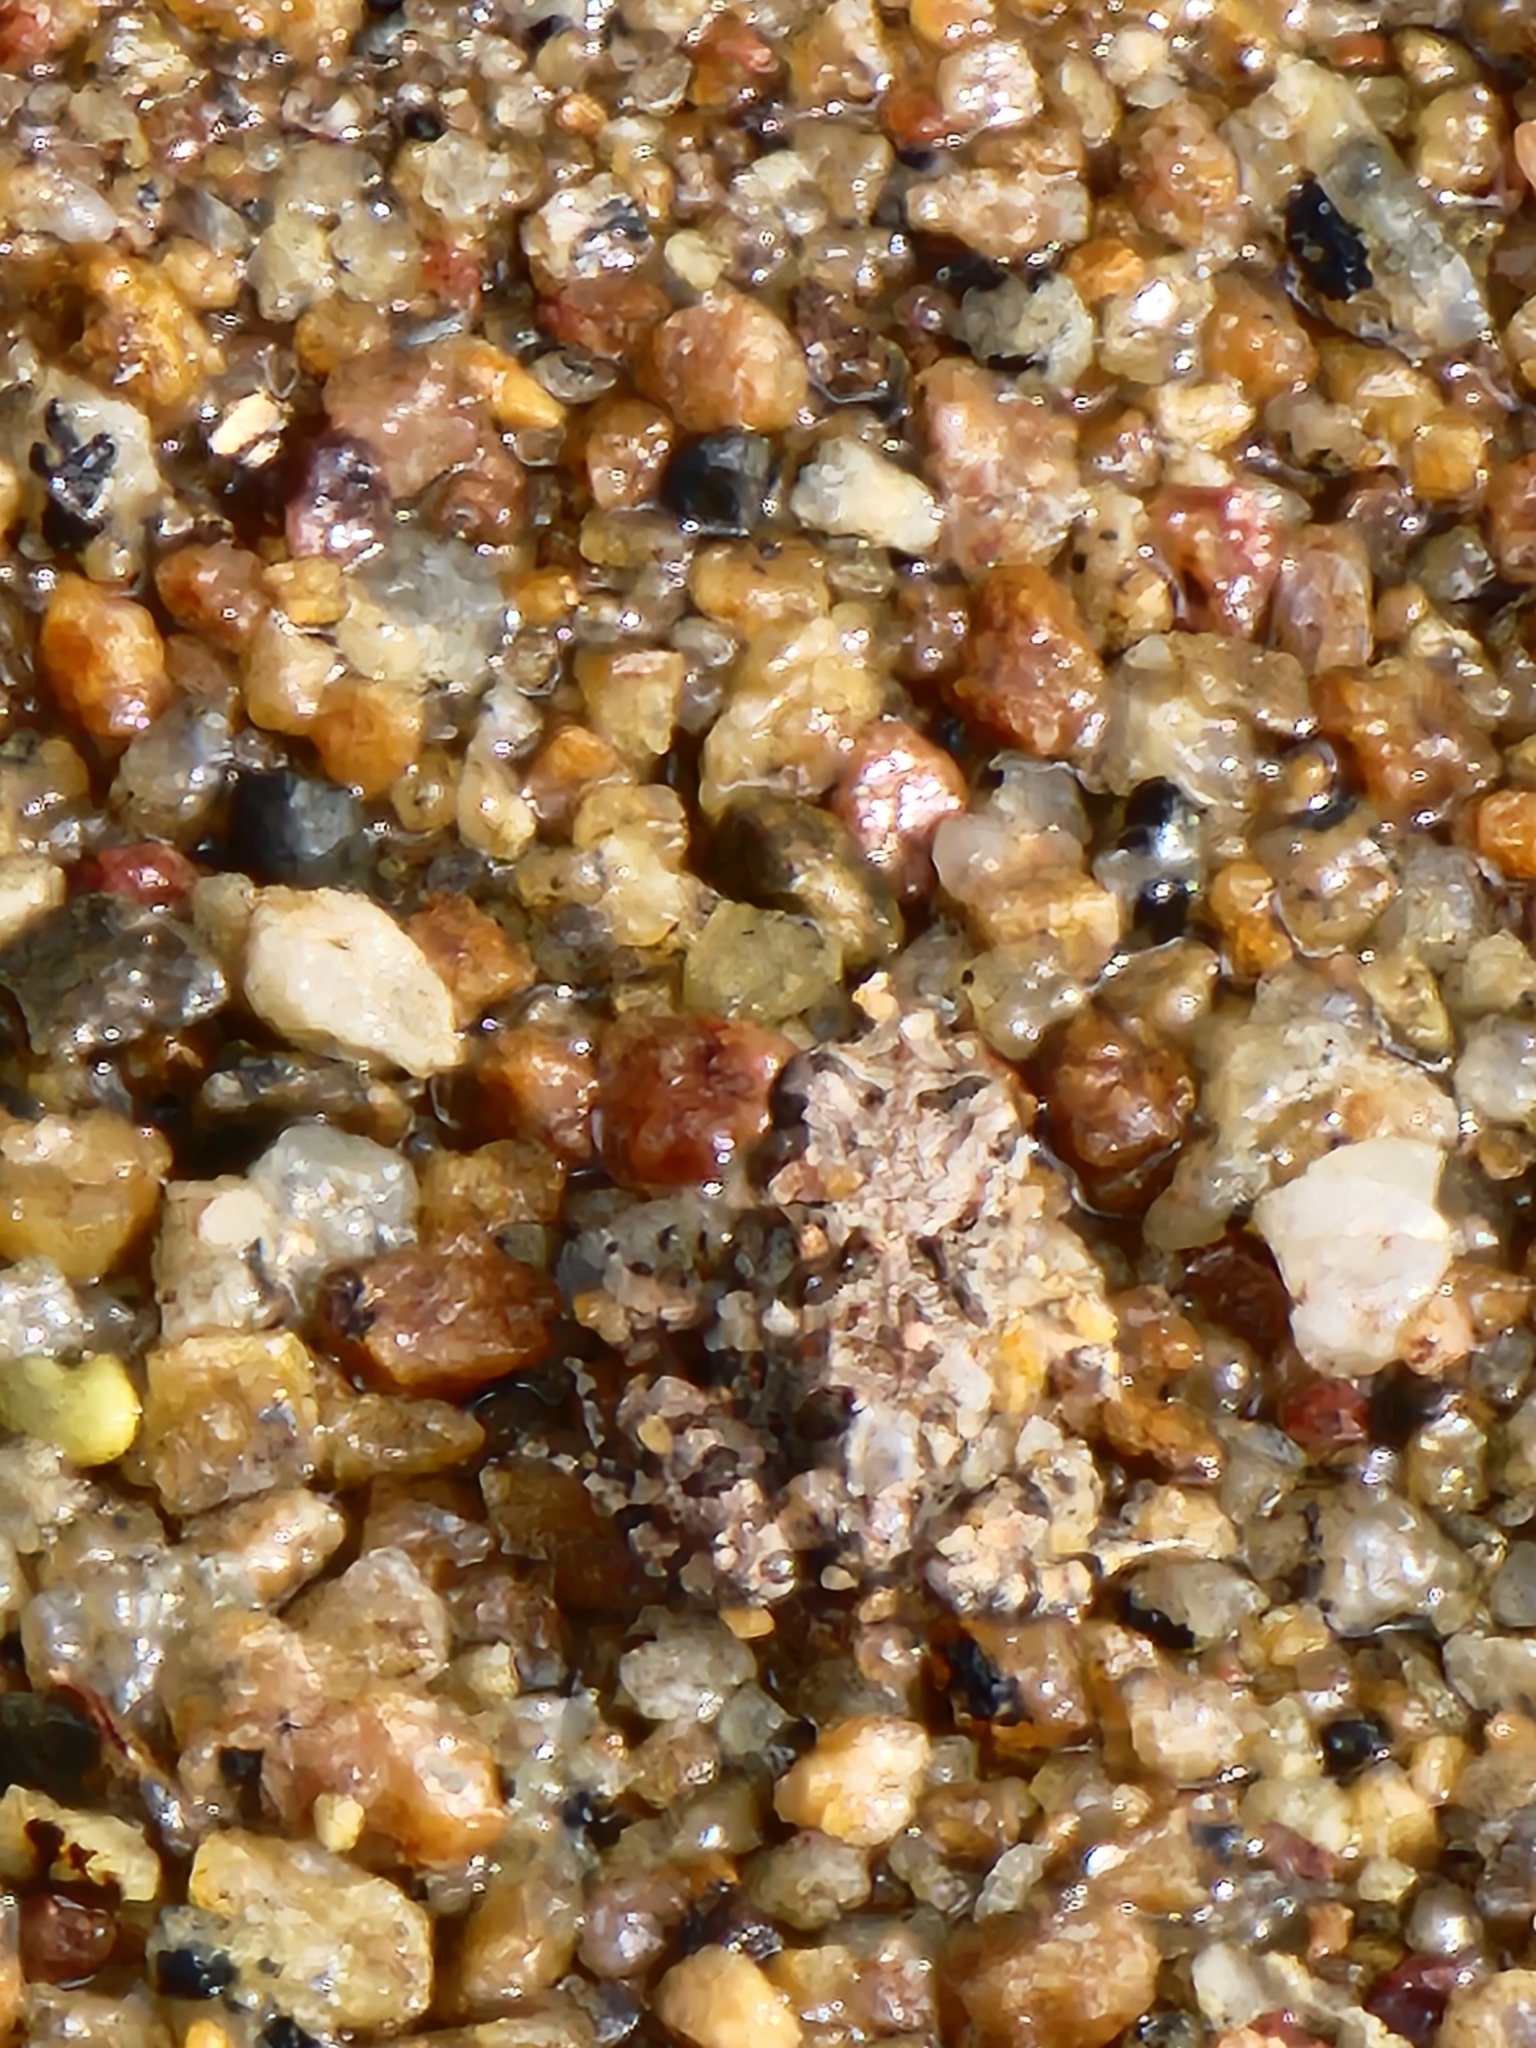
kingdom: Animalia
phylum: Chordata
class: Amphibia
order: Anura
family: Limnodynastidae
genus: Platyplectrum
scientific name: Platyplectrum ornatum
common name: Ornate burrowing frog
